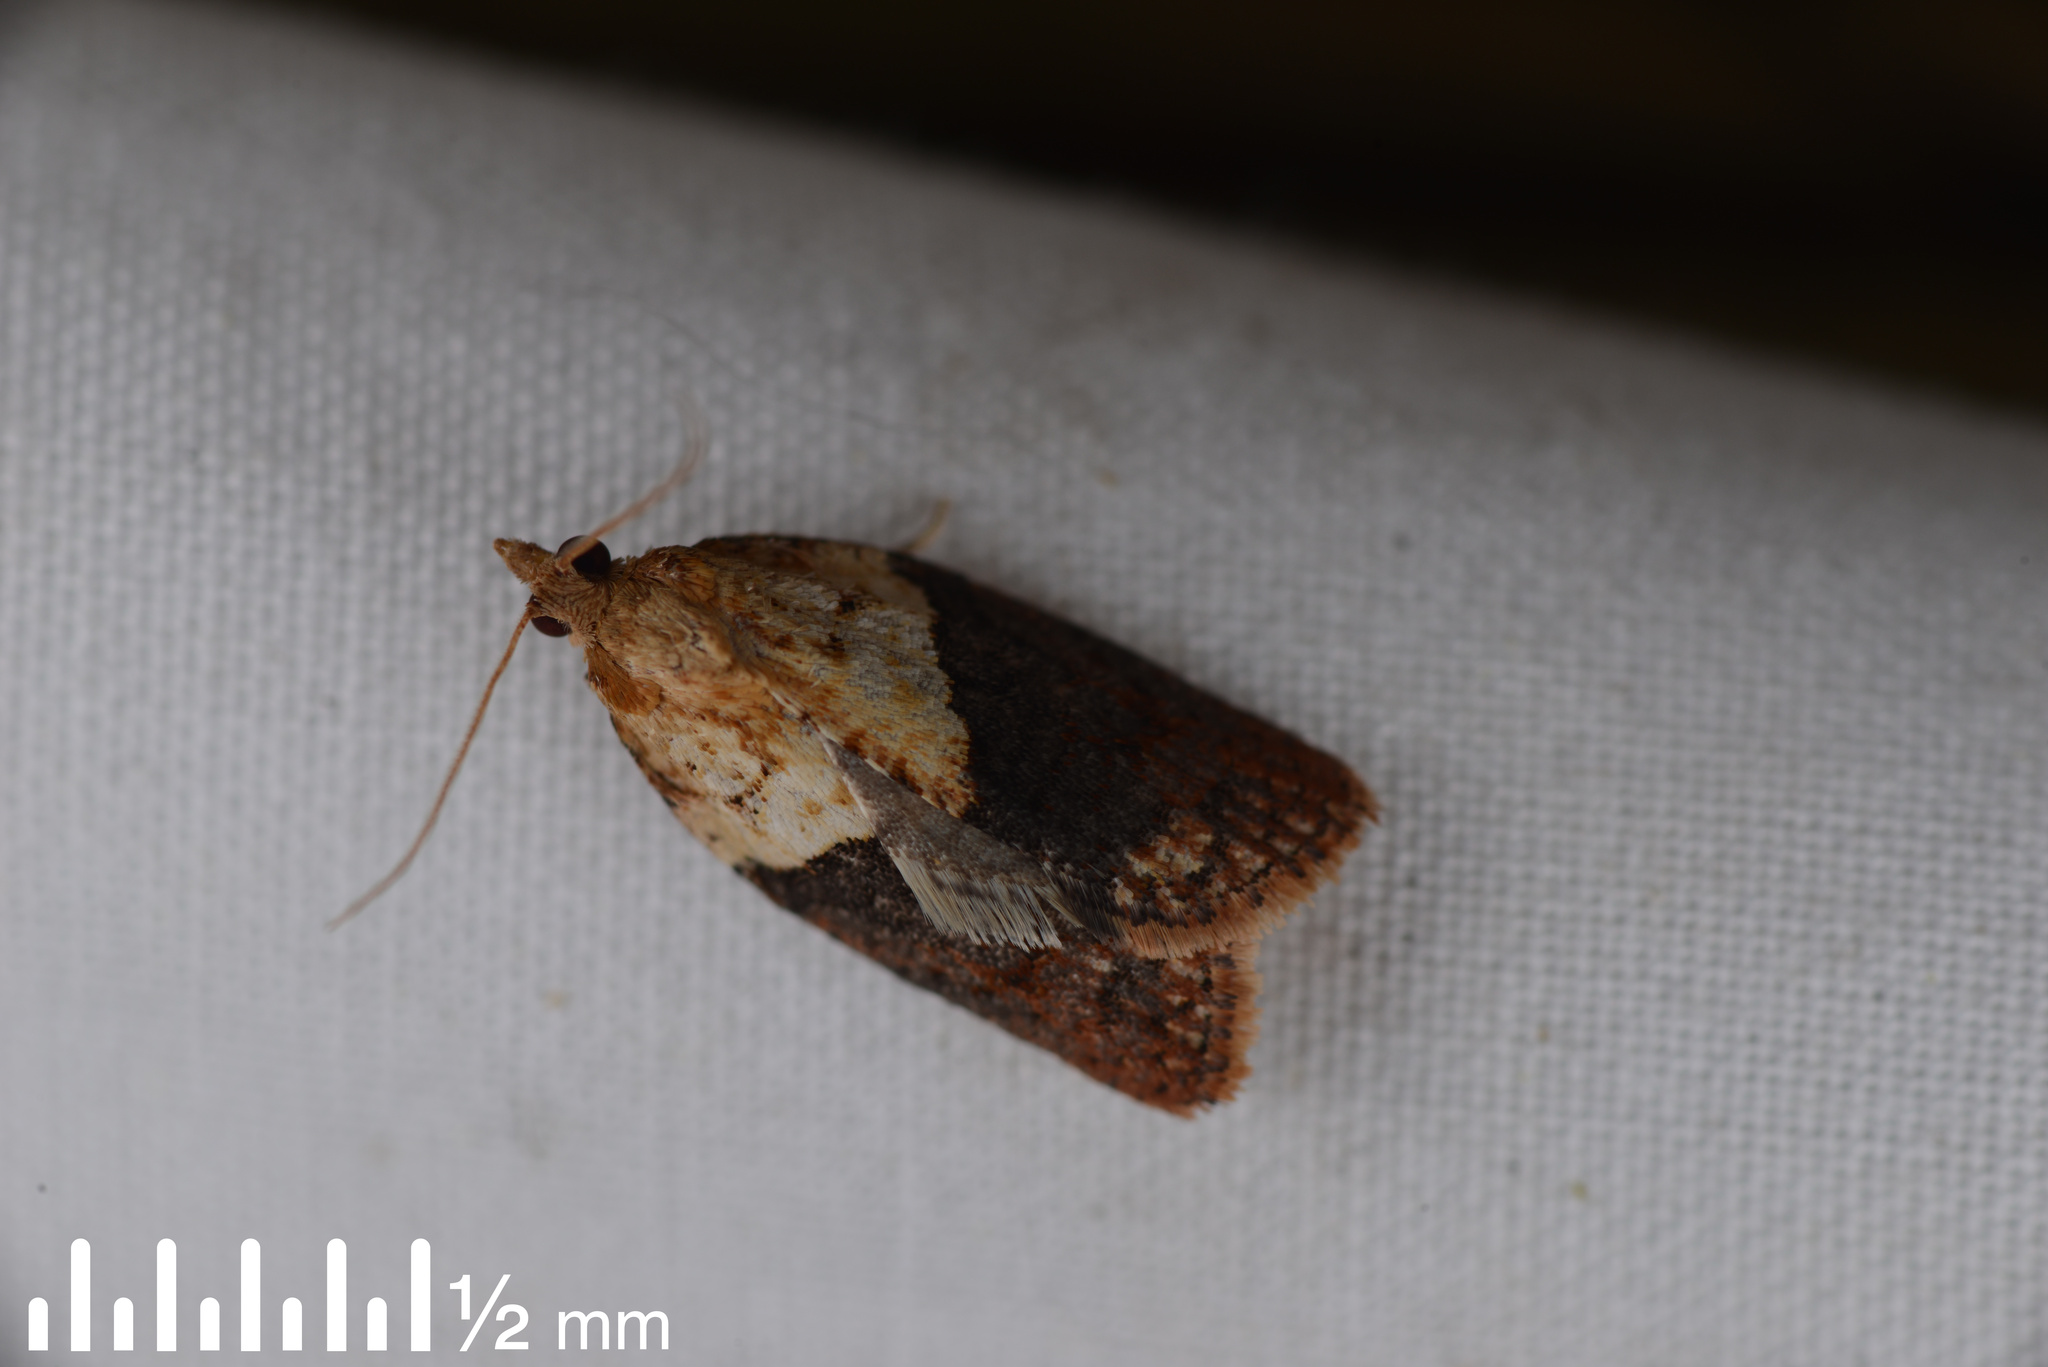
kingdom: Animalia
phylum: Arthropoda
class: Insecta
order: Lepidoptera
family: Tortricidae
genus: Epiphyas
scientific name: Epiphyas postvittana
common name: Light brown apple moth
